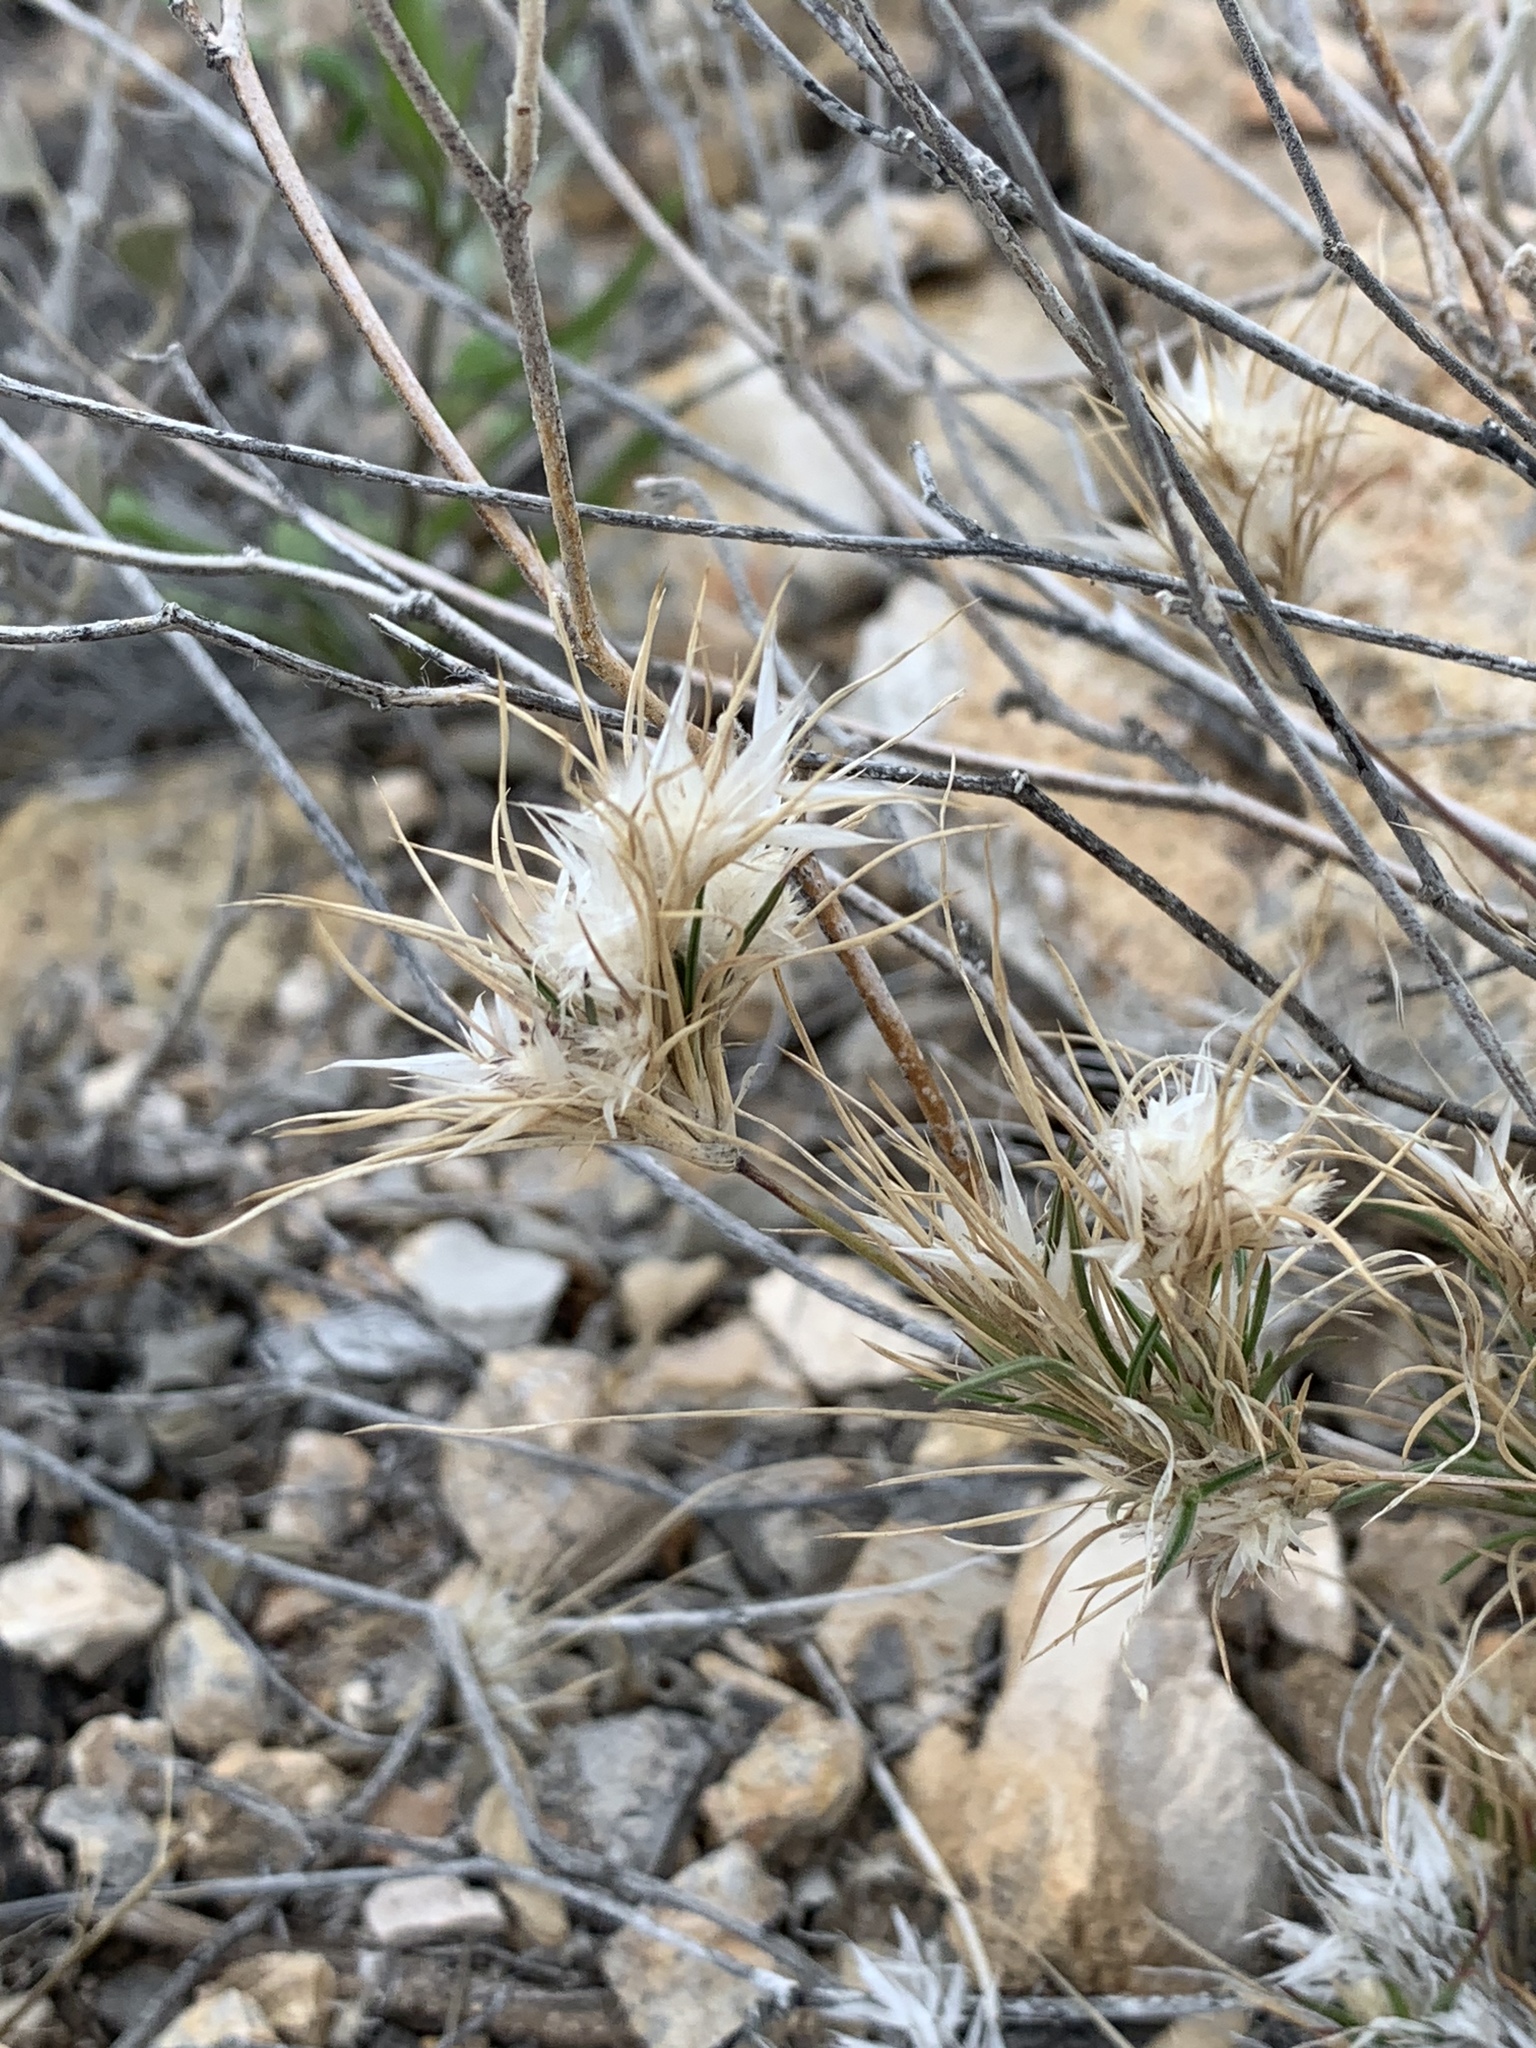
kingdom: Plantae
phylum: Tracheophyta
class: Liliopsida
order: Poales
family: Poaceae
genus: Dasyochloa
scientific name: Dasyochloa pulchella
